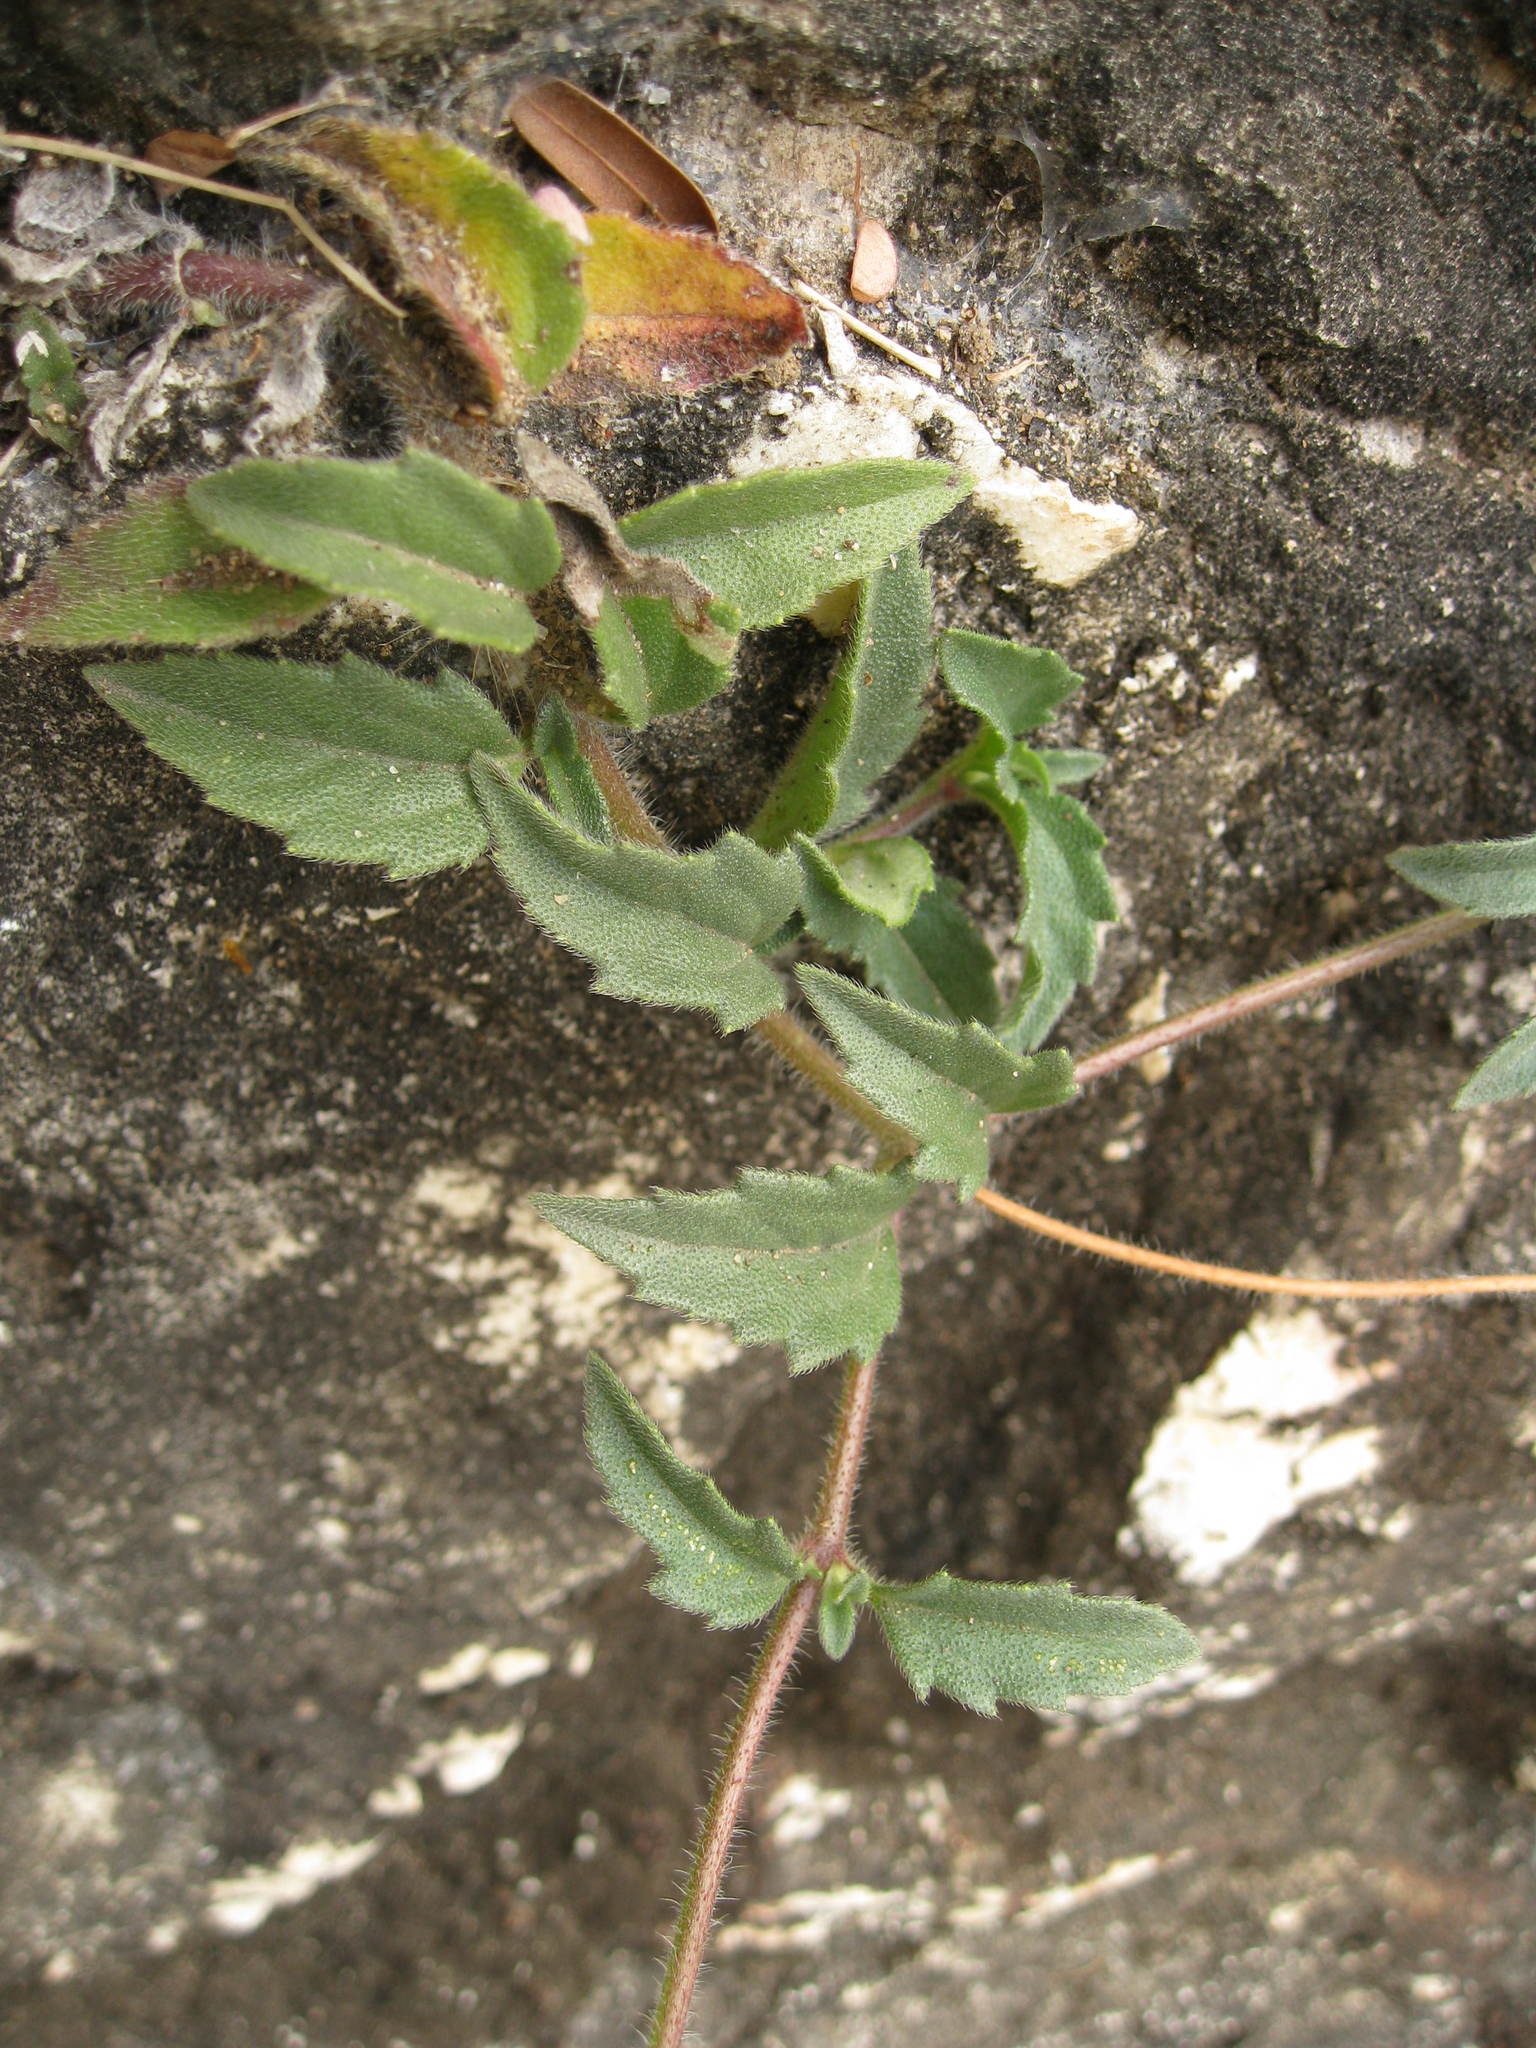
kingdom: Plantae
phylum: Tracheophyta
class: Magnoliopsida
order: Asterales
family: Asteraceae
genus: Tridax
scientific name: Tridax procumbens
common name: Coatbuttons
